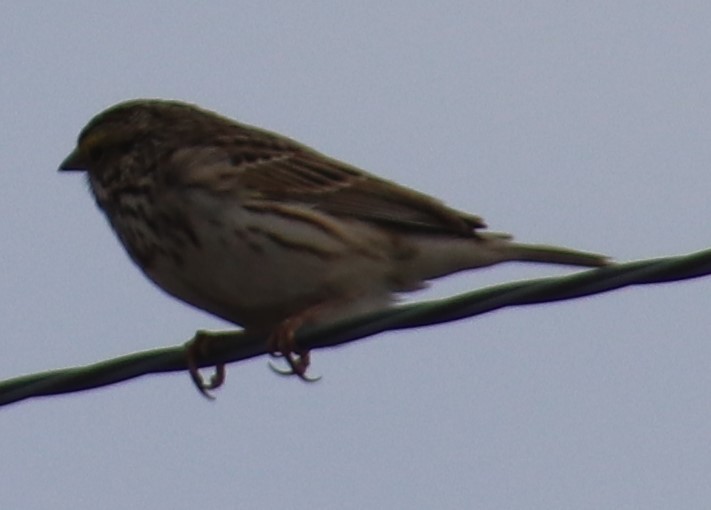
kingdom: Animalia
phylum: Chordata
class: Aves
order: Passeriformes
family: Passerellidae
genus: Passerculus
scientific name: Passerculus sandwichensis
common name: Savannah sparrow
